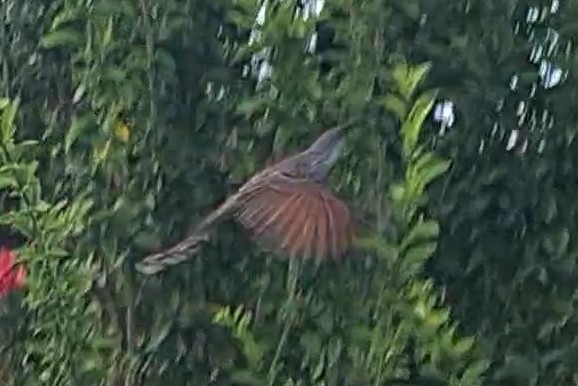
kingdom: Animalia
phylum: Chordata
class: Aves
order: Passeriformes
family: Meliphagidae
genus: Anthochaera
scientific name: Anthochaera chrysoptera
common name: Little wattlebird
